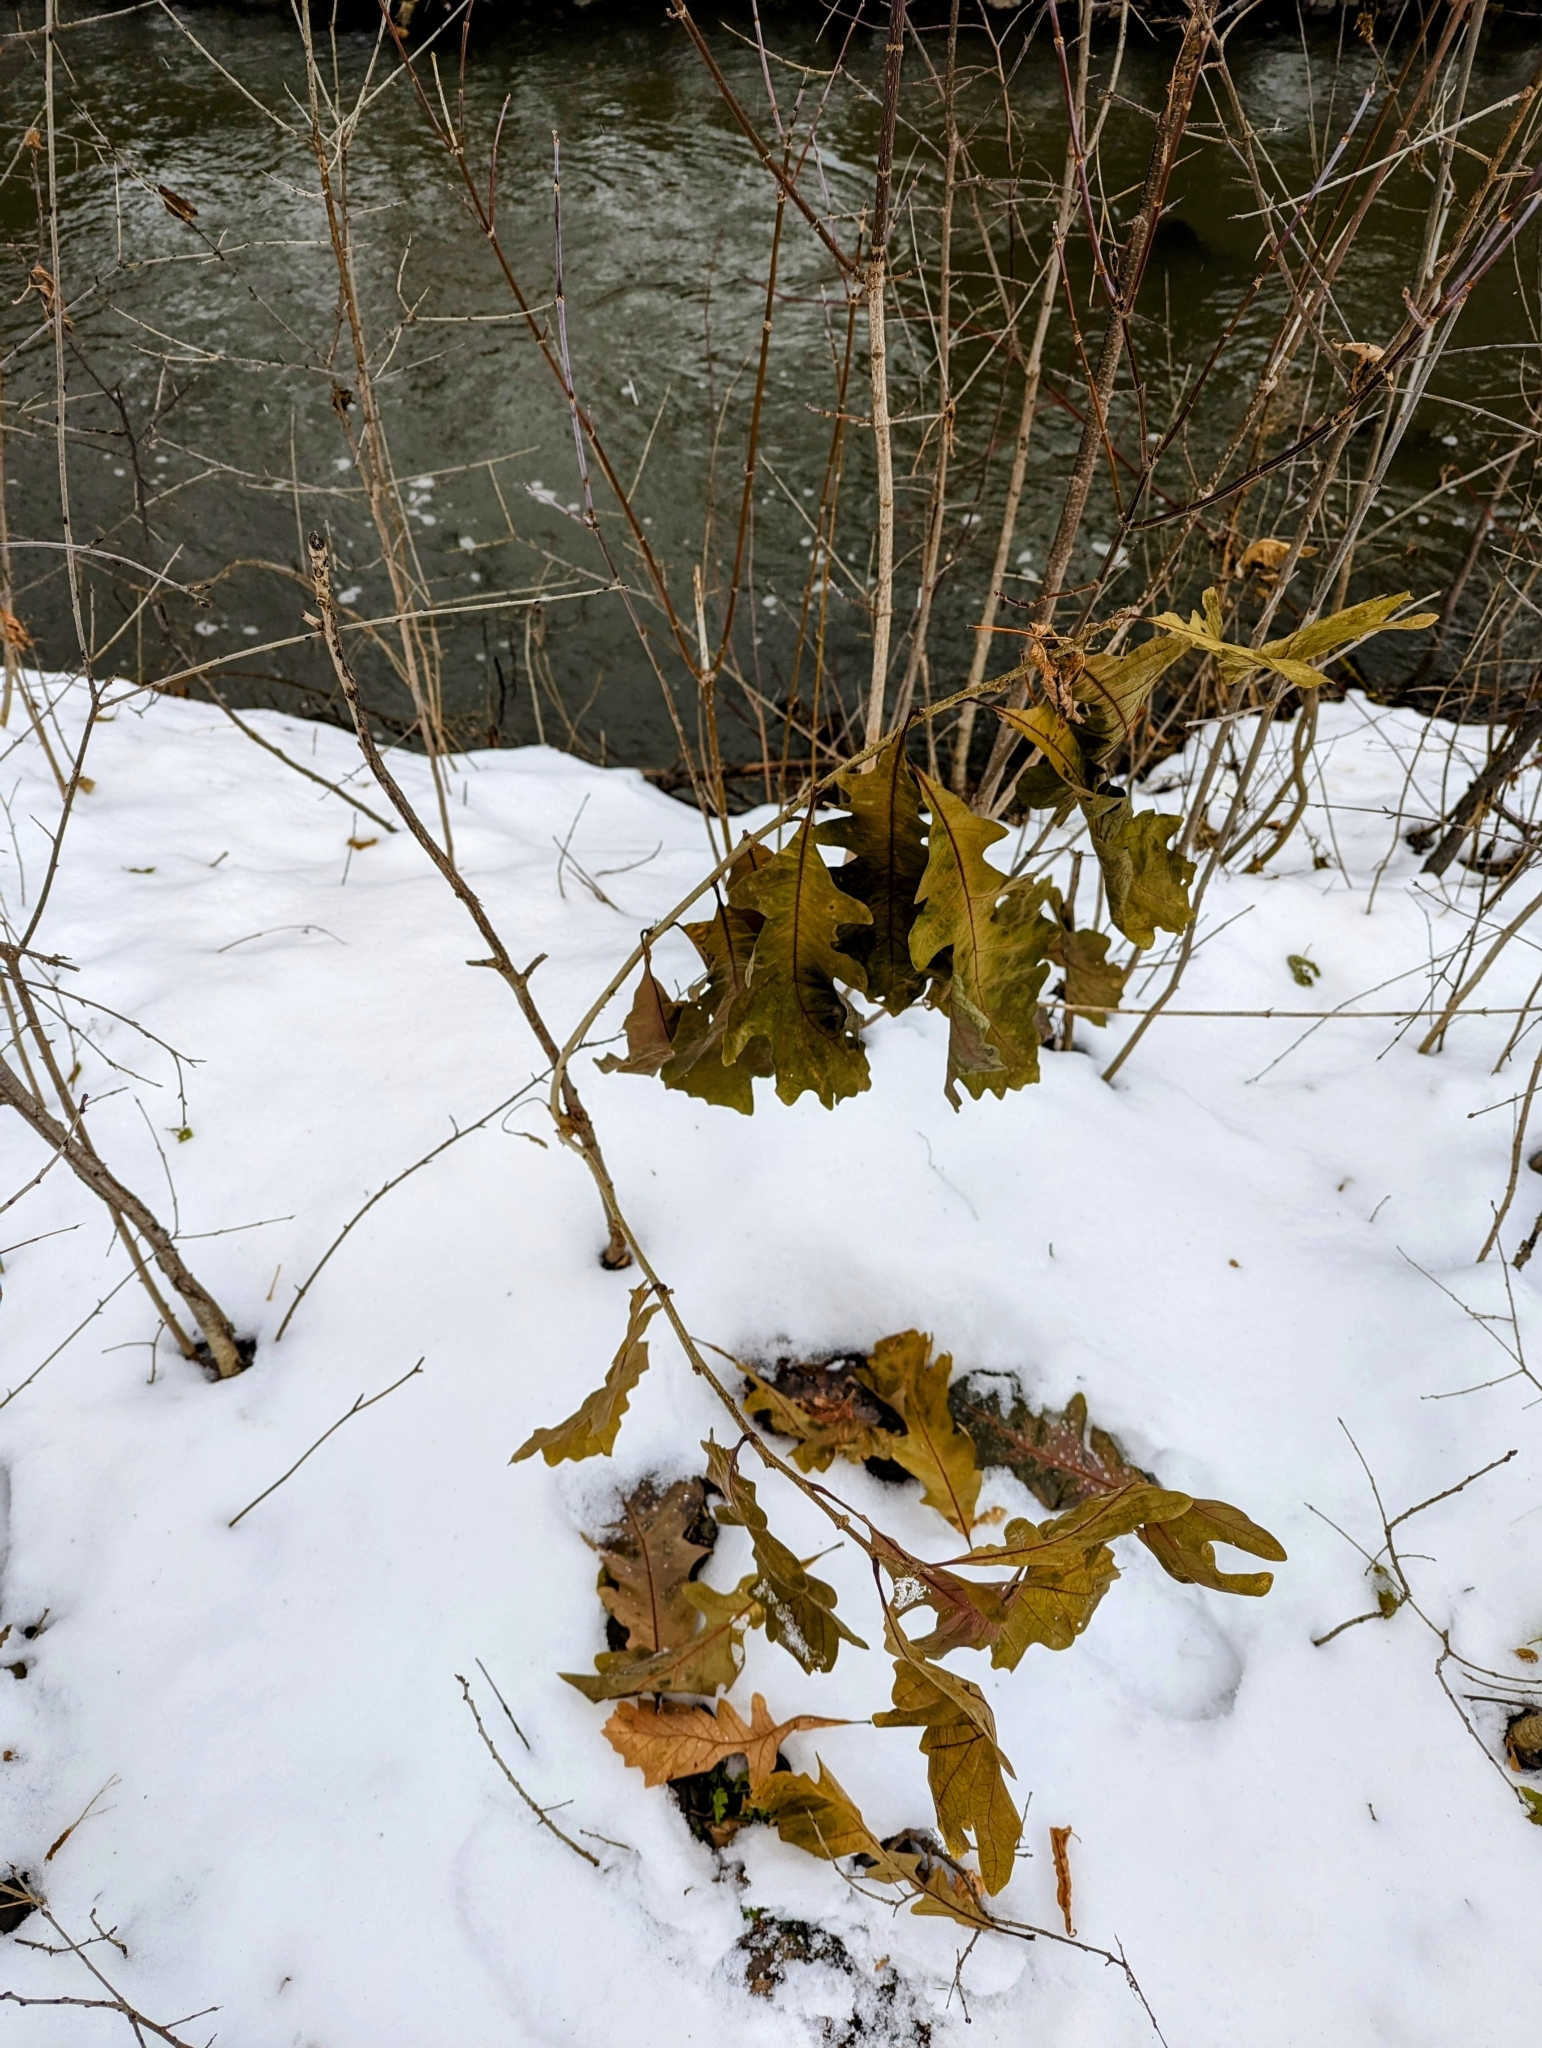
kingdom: Plantae
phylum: Tracheophyta
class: Magnoliopsida
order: Fagales
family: Fagaceae
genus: Quercus
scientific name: Quercus macrocarpa
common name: Bur oak
